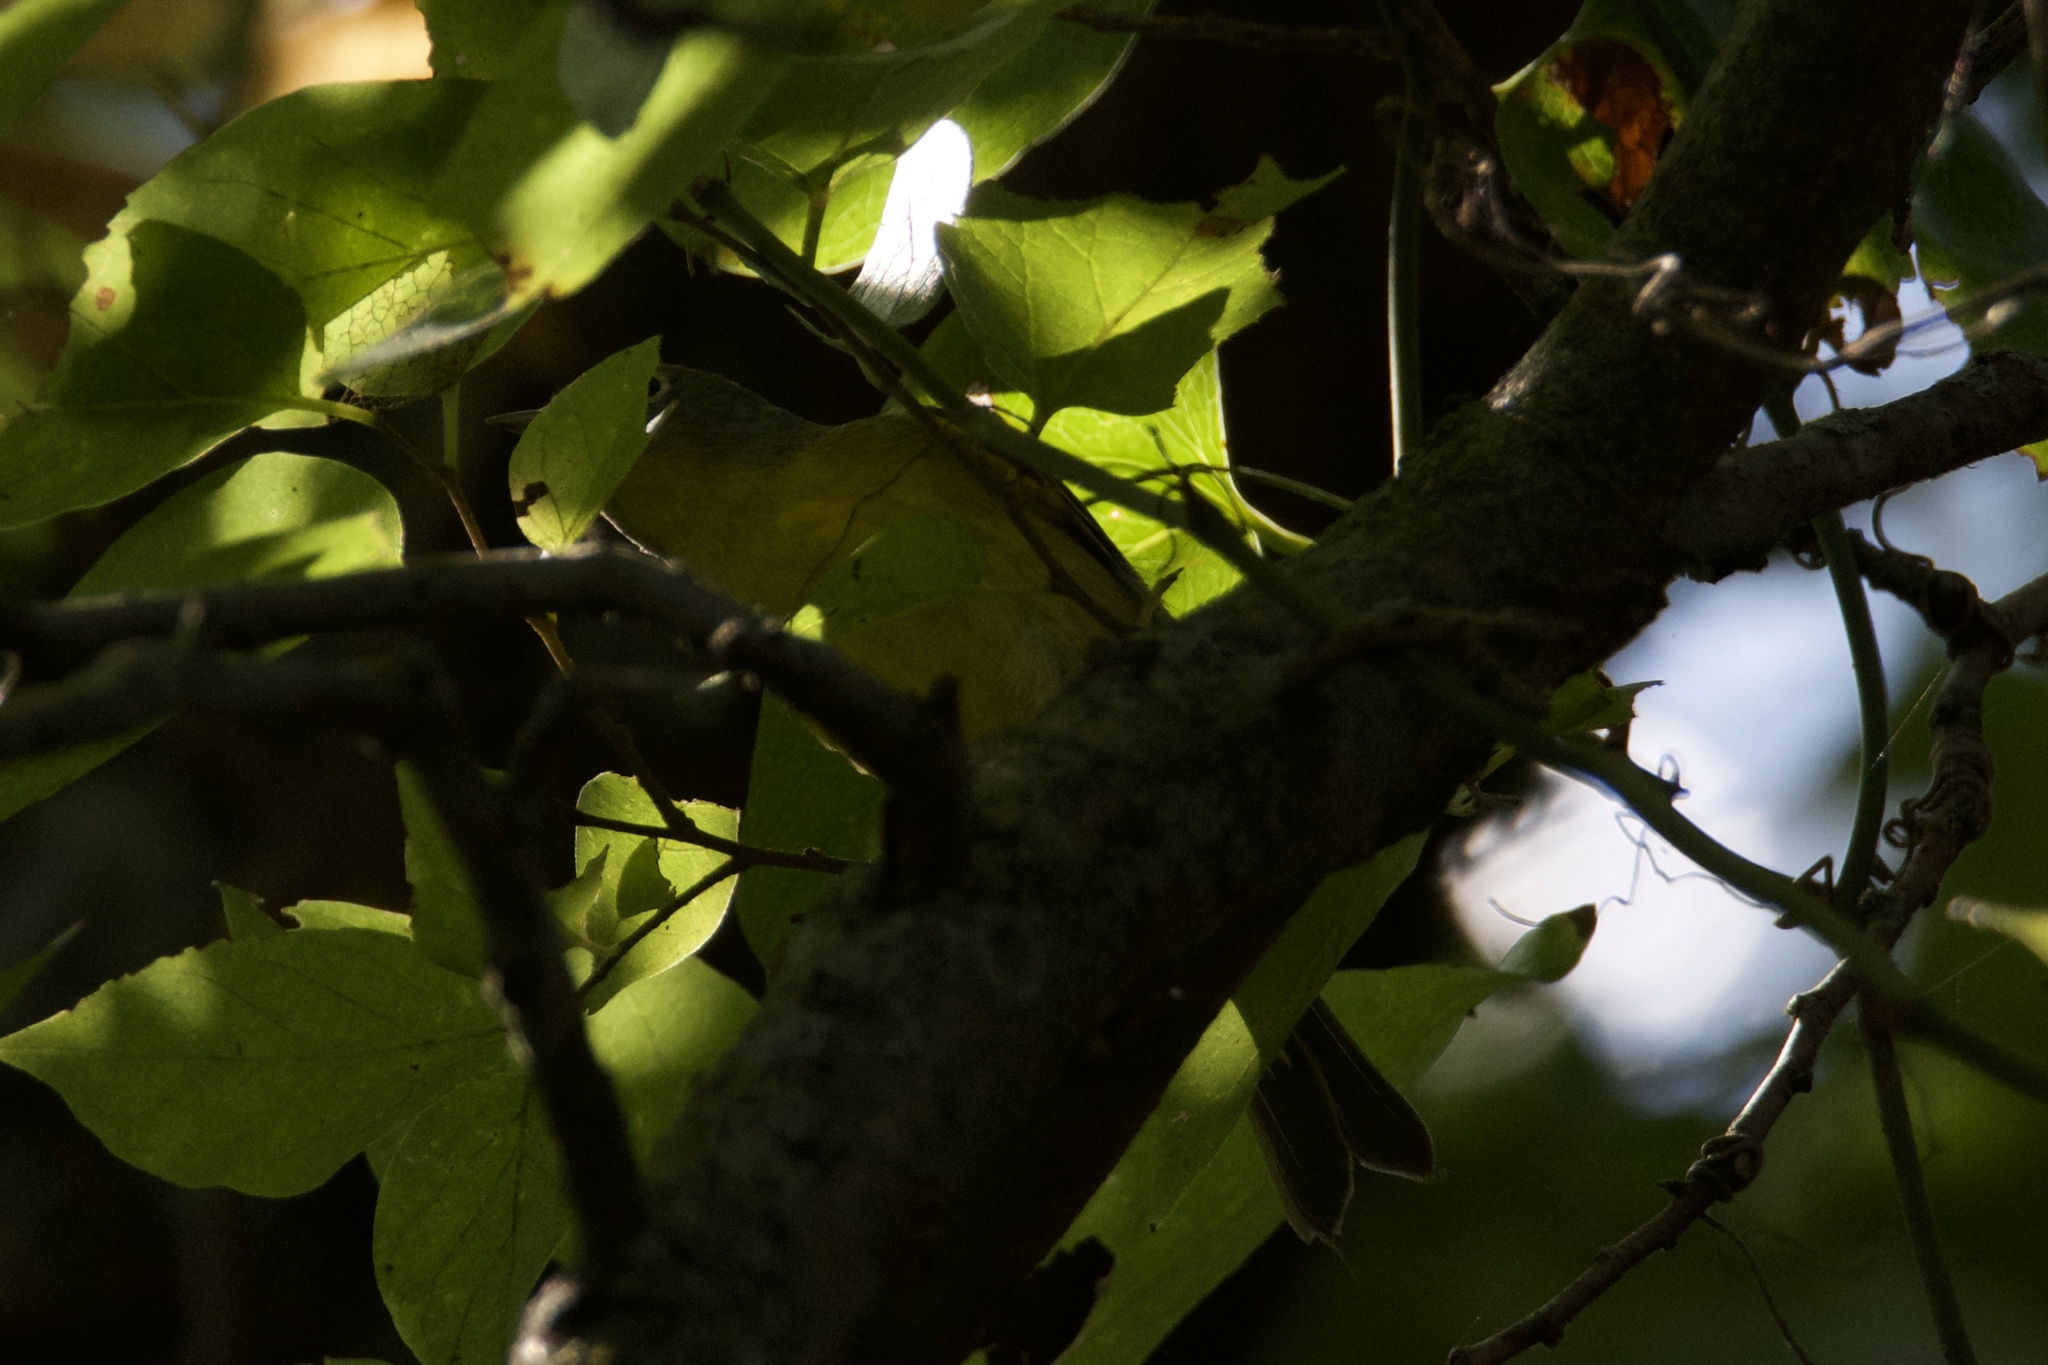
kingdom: Animalia
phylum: Chordata
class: Aves
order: Passeriformes
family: Parulidae
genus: Leiothlypis
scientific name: Leiothlypis ruficapilla
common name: Nashville warbler
